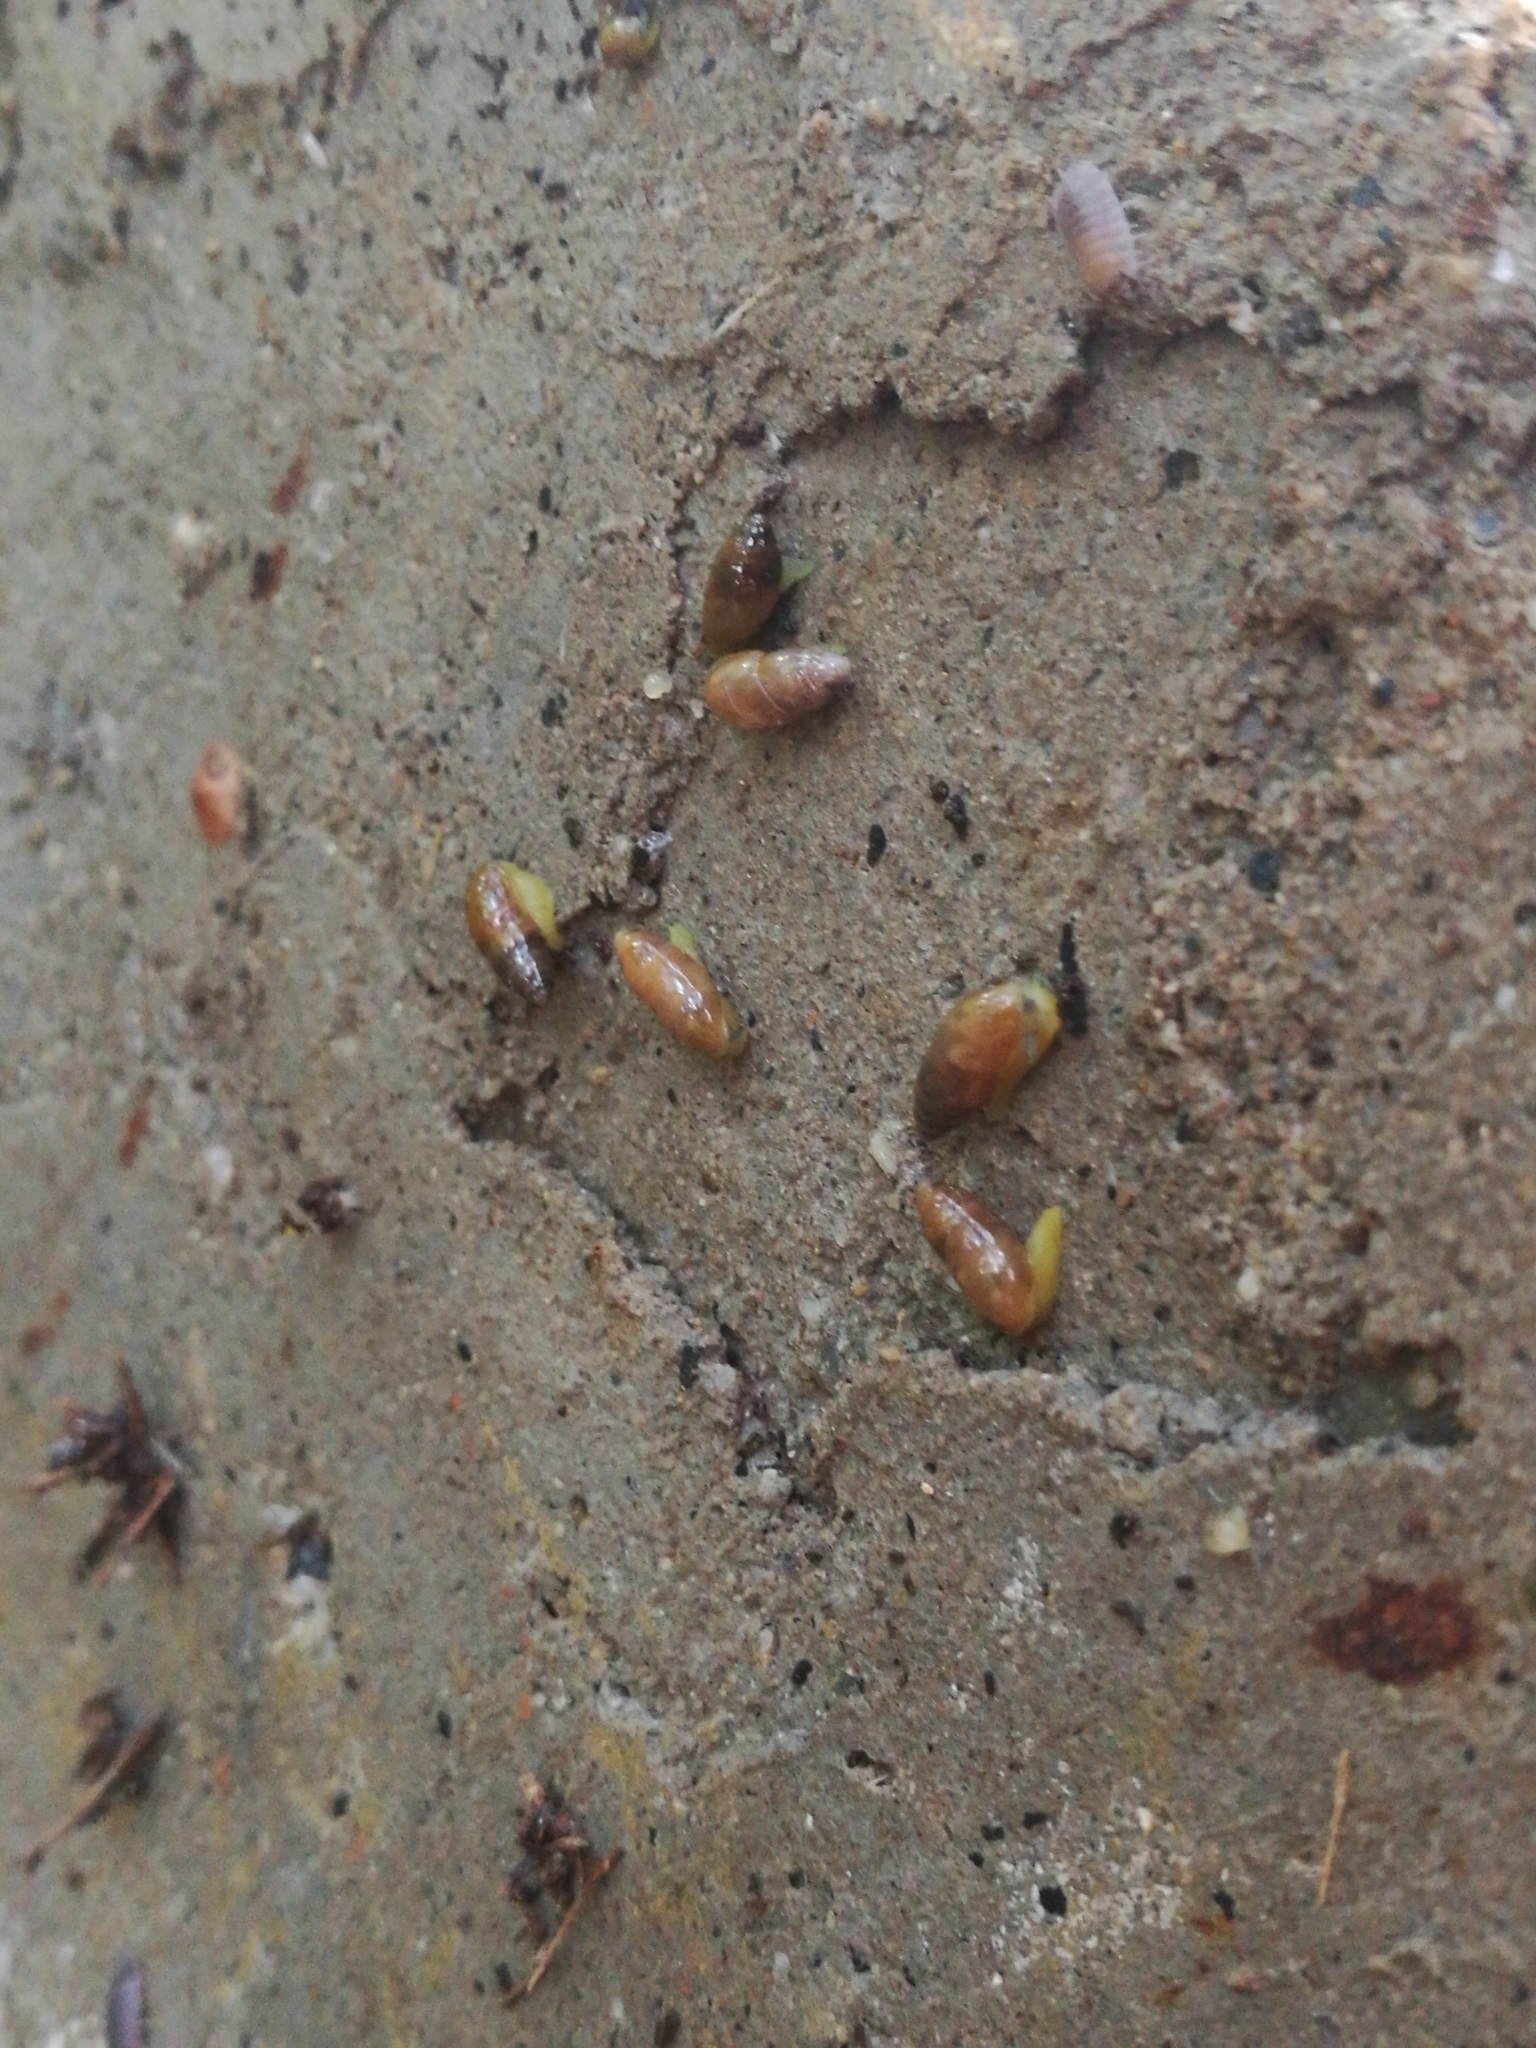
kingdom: Animalia
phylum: Mollusca
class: Gastropoda
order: Stylommatophora
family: Ferussaciidae
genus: Ferussacia
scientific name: Ferussacia folliculum
